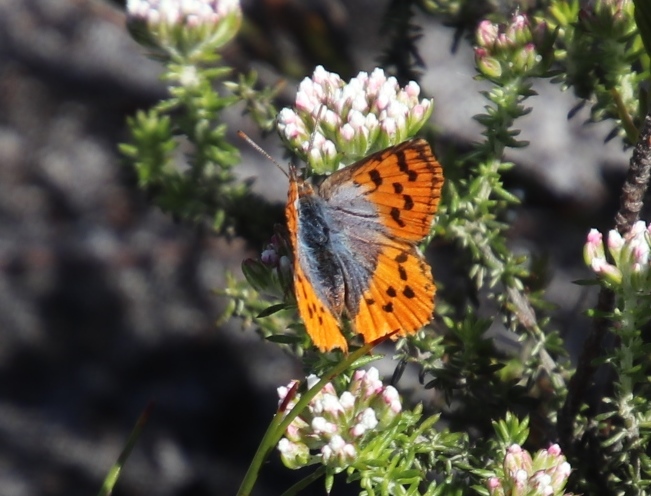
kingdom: Animalia
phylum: Arthropoda
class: Insecta
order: Lepidoptera
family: Lycaenidae
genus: Chrysoritis
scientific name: Chrysoritis thysbe
